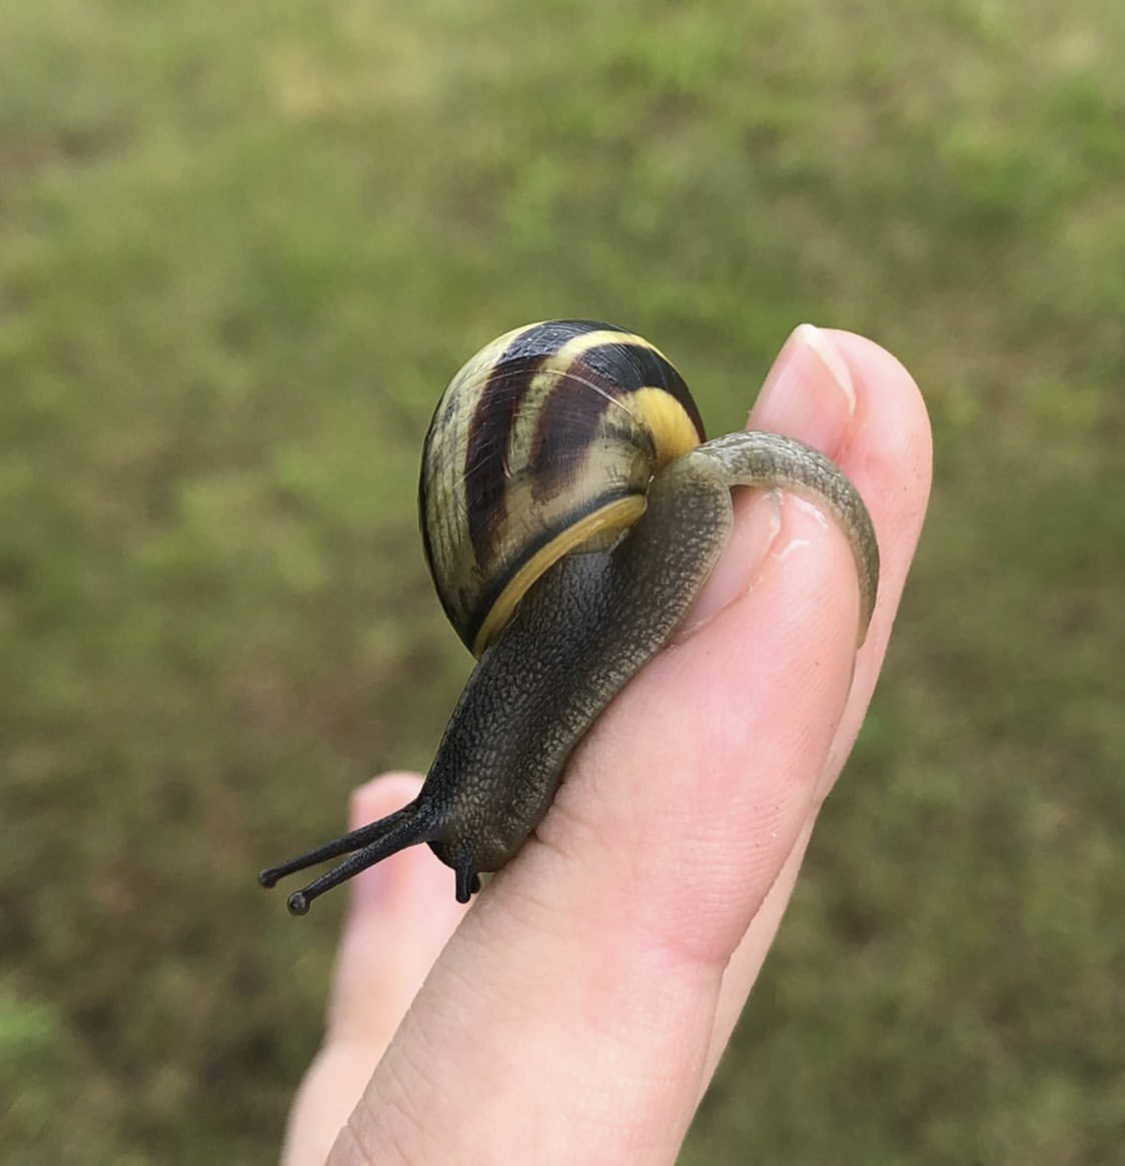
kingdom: Animalia
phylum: Mollusca
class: Gastropoda
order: Stylommatophora
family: Helicidae
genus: Cepaea
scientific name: Cepaea nemoralis
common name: Grovesnail
